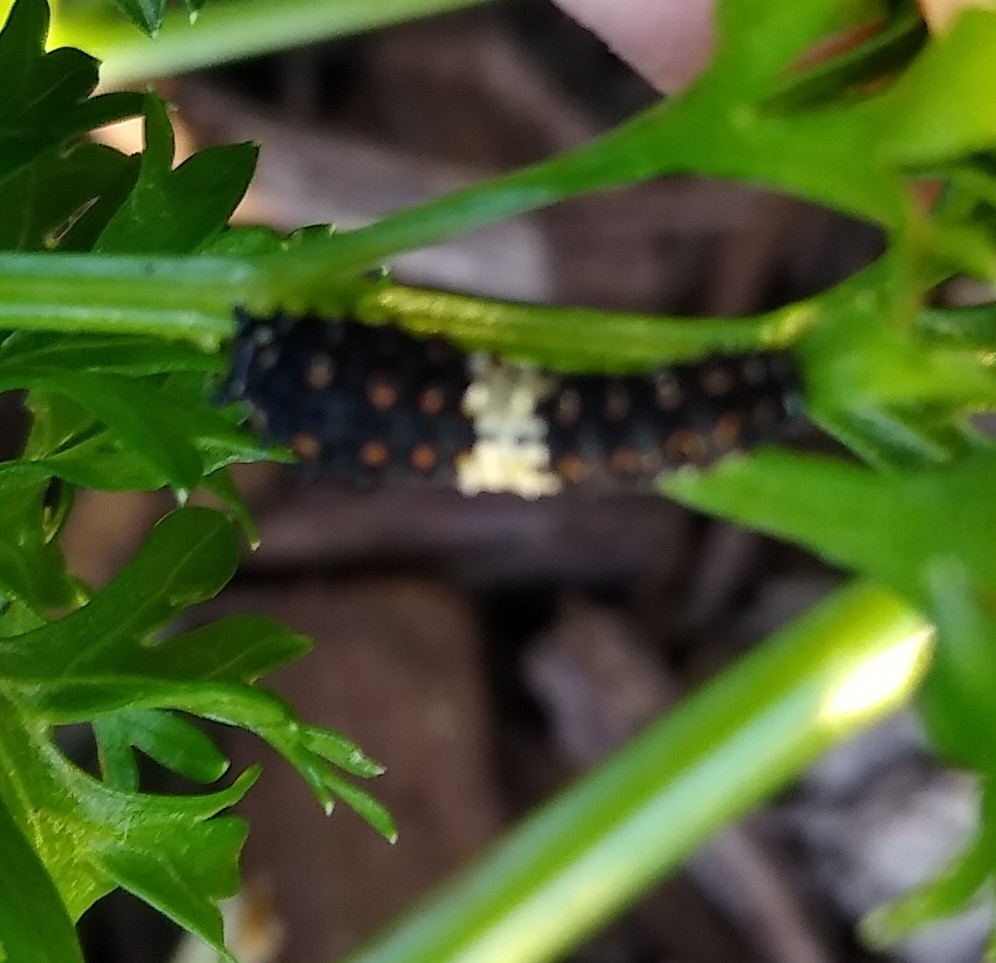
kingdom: Animalia
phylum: Arthropoda
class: Insecta
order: Lepidoptera
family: Papilionidae
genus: Papilio
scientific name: Papilio polyxenes
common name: Black swallowtail
